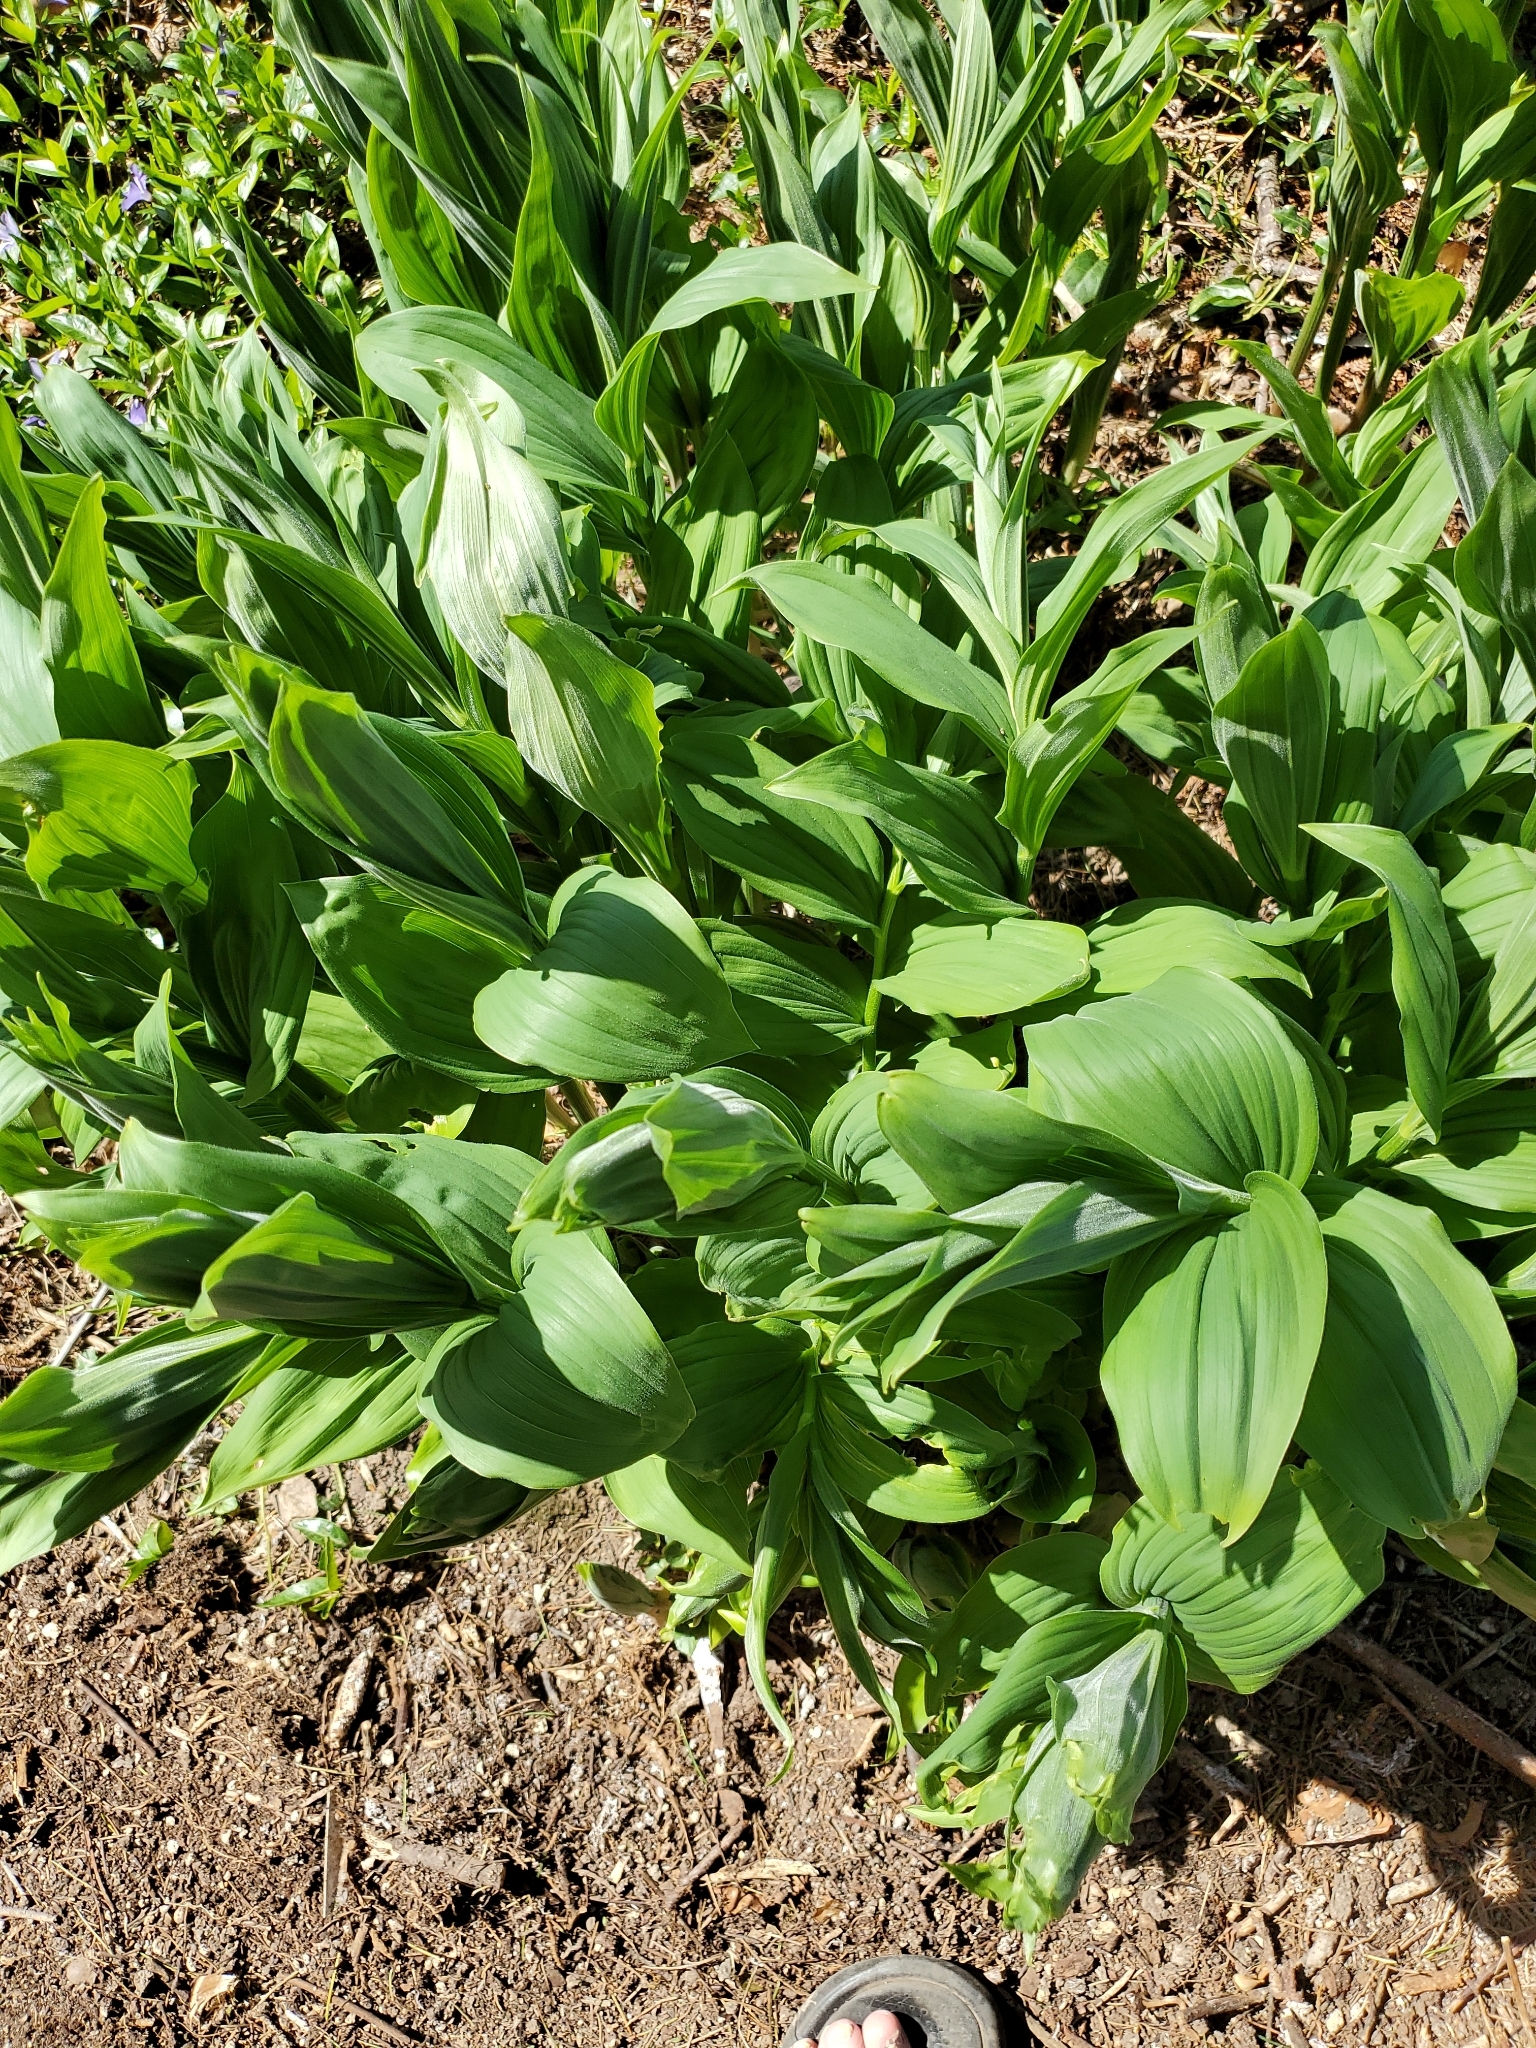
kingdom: Plantae
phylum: Tracheophyta
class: Liliopsida
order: Asparagales
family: Asparagaceae
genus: Maianthemum
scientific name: Maianthemum racemosum
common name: False spikenard
